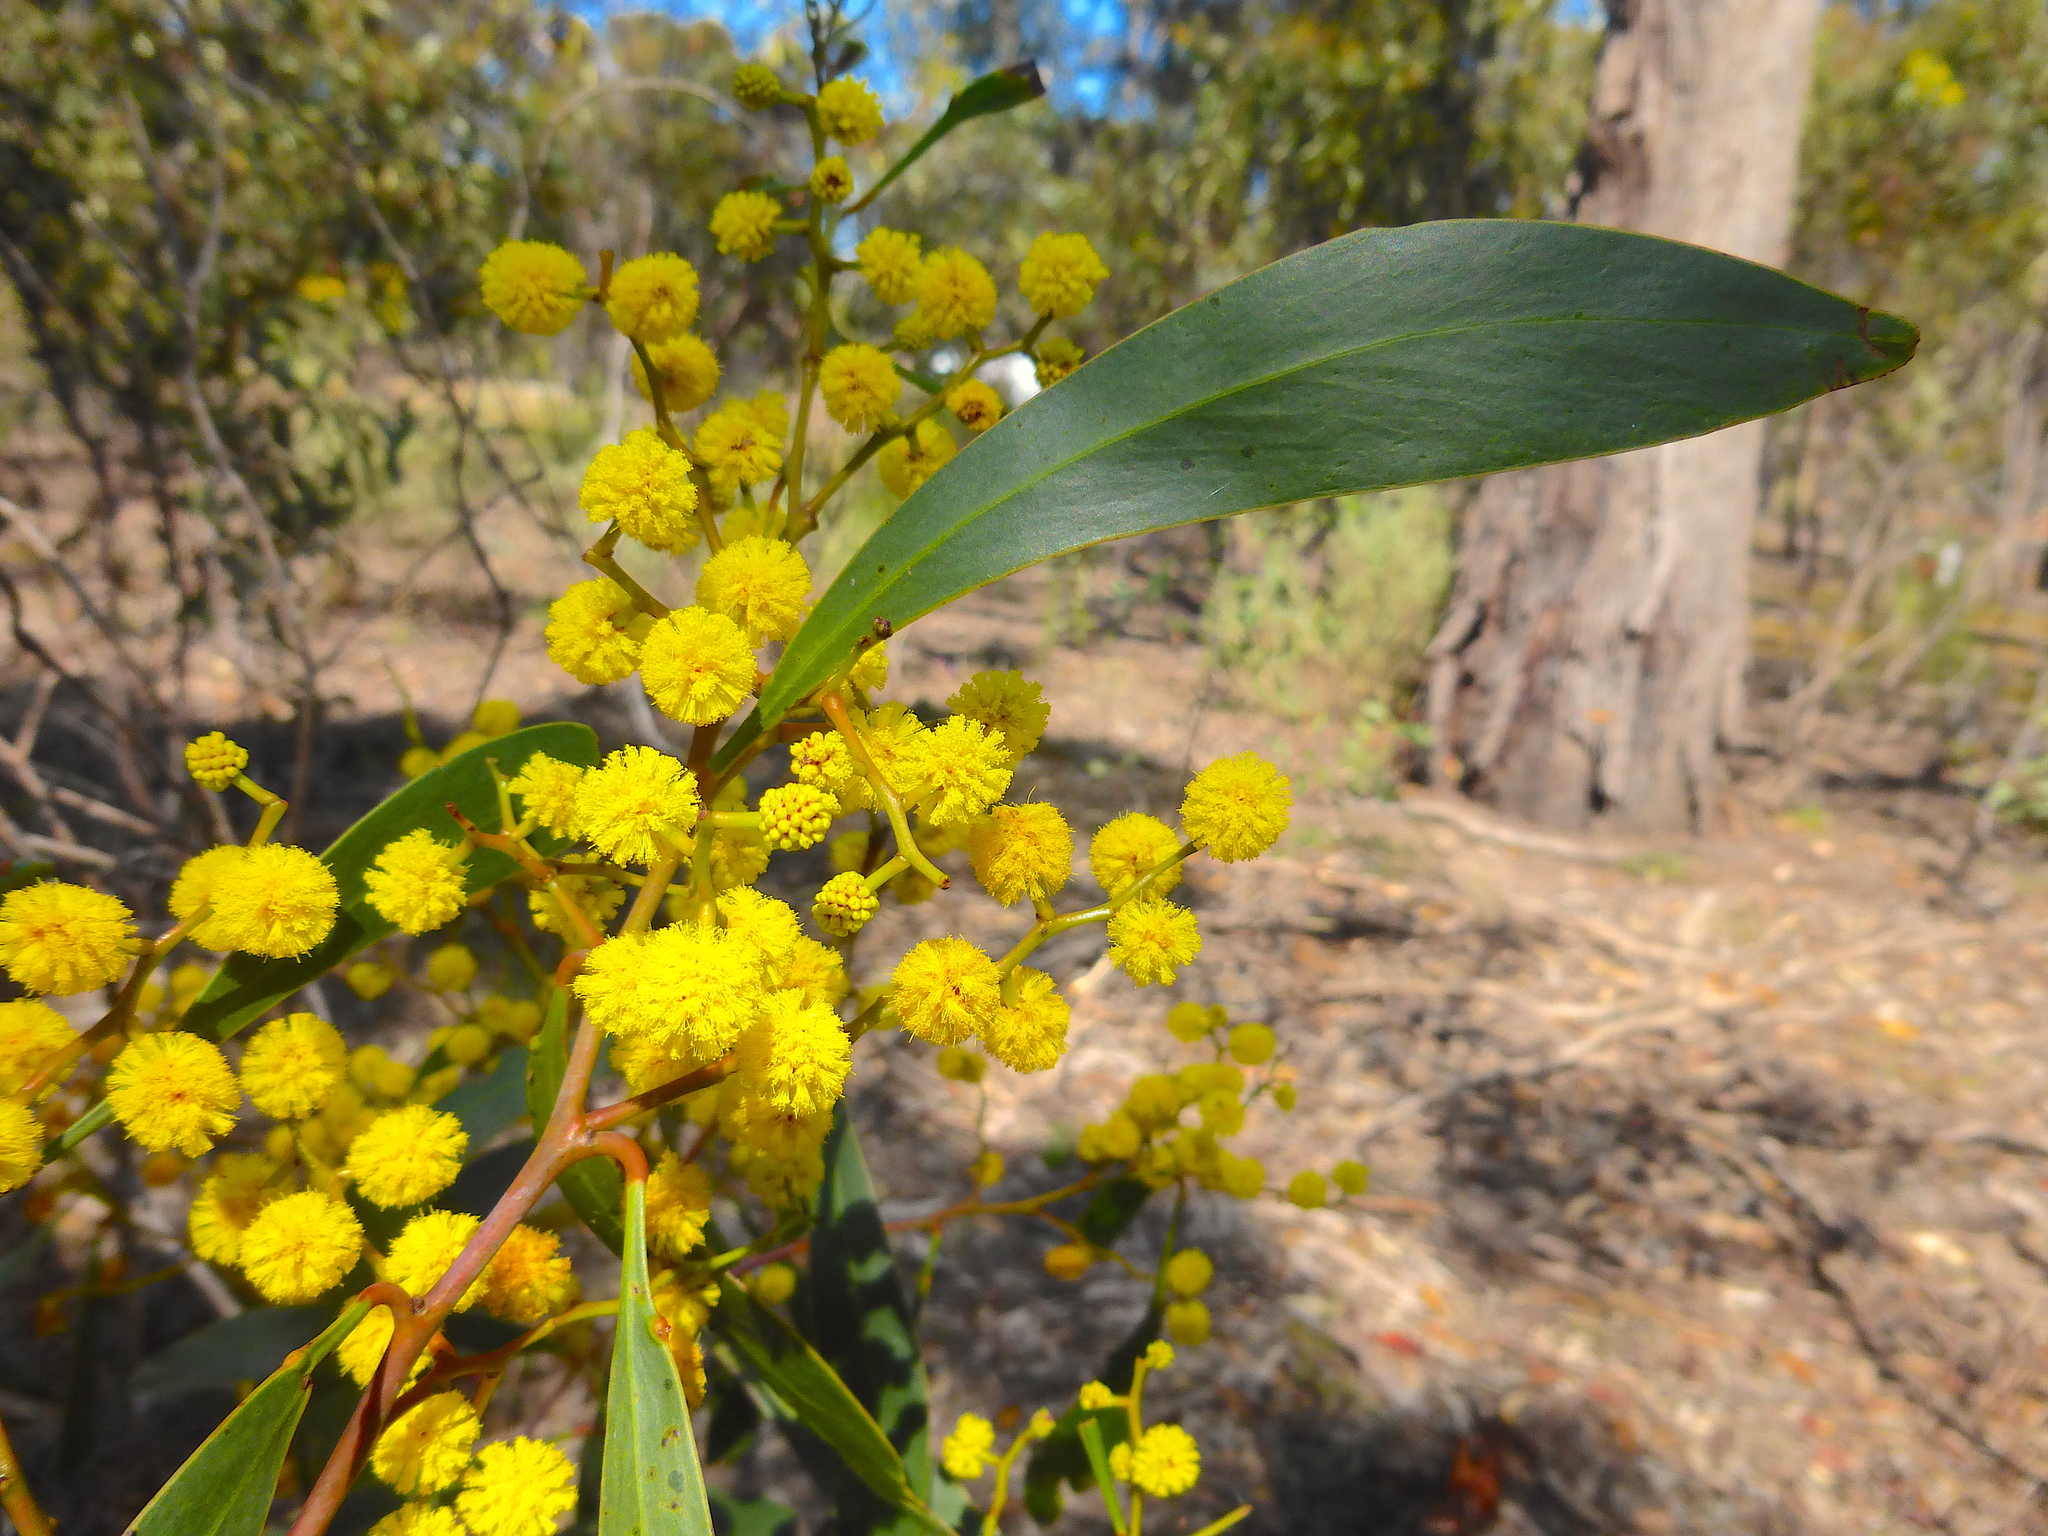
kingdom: Plantae
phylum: Tracheophyta
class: Magnoliopsida
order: Fabales
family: Fabaceae
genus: Acacia
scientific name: Acacia pycnantha
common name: Golden wattle
